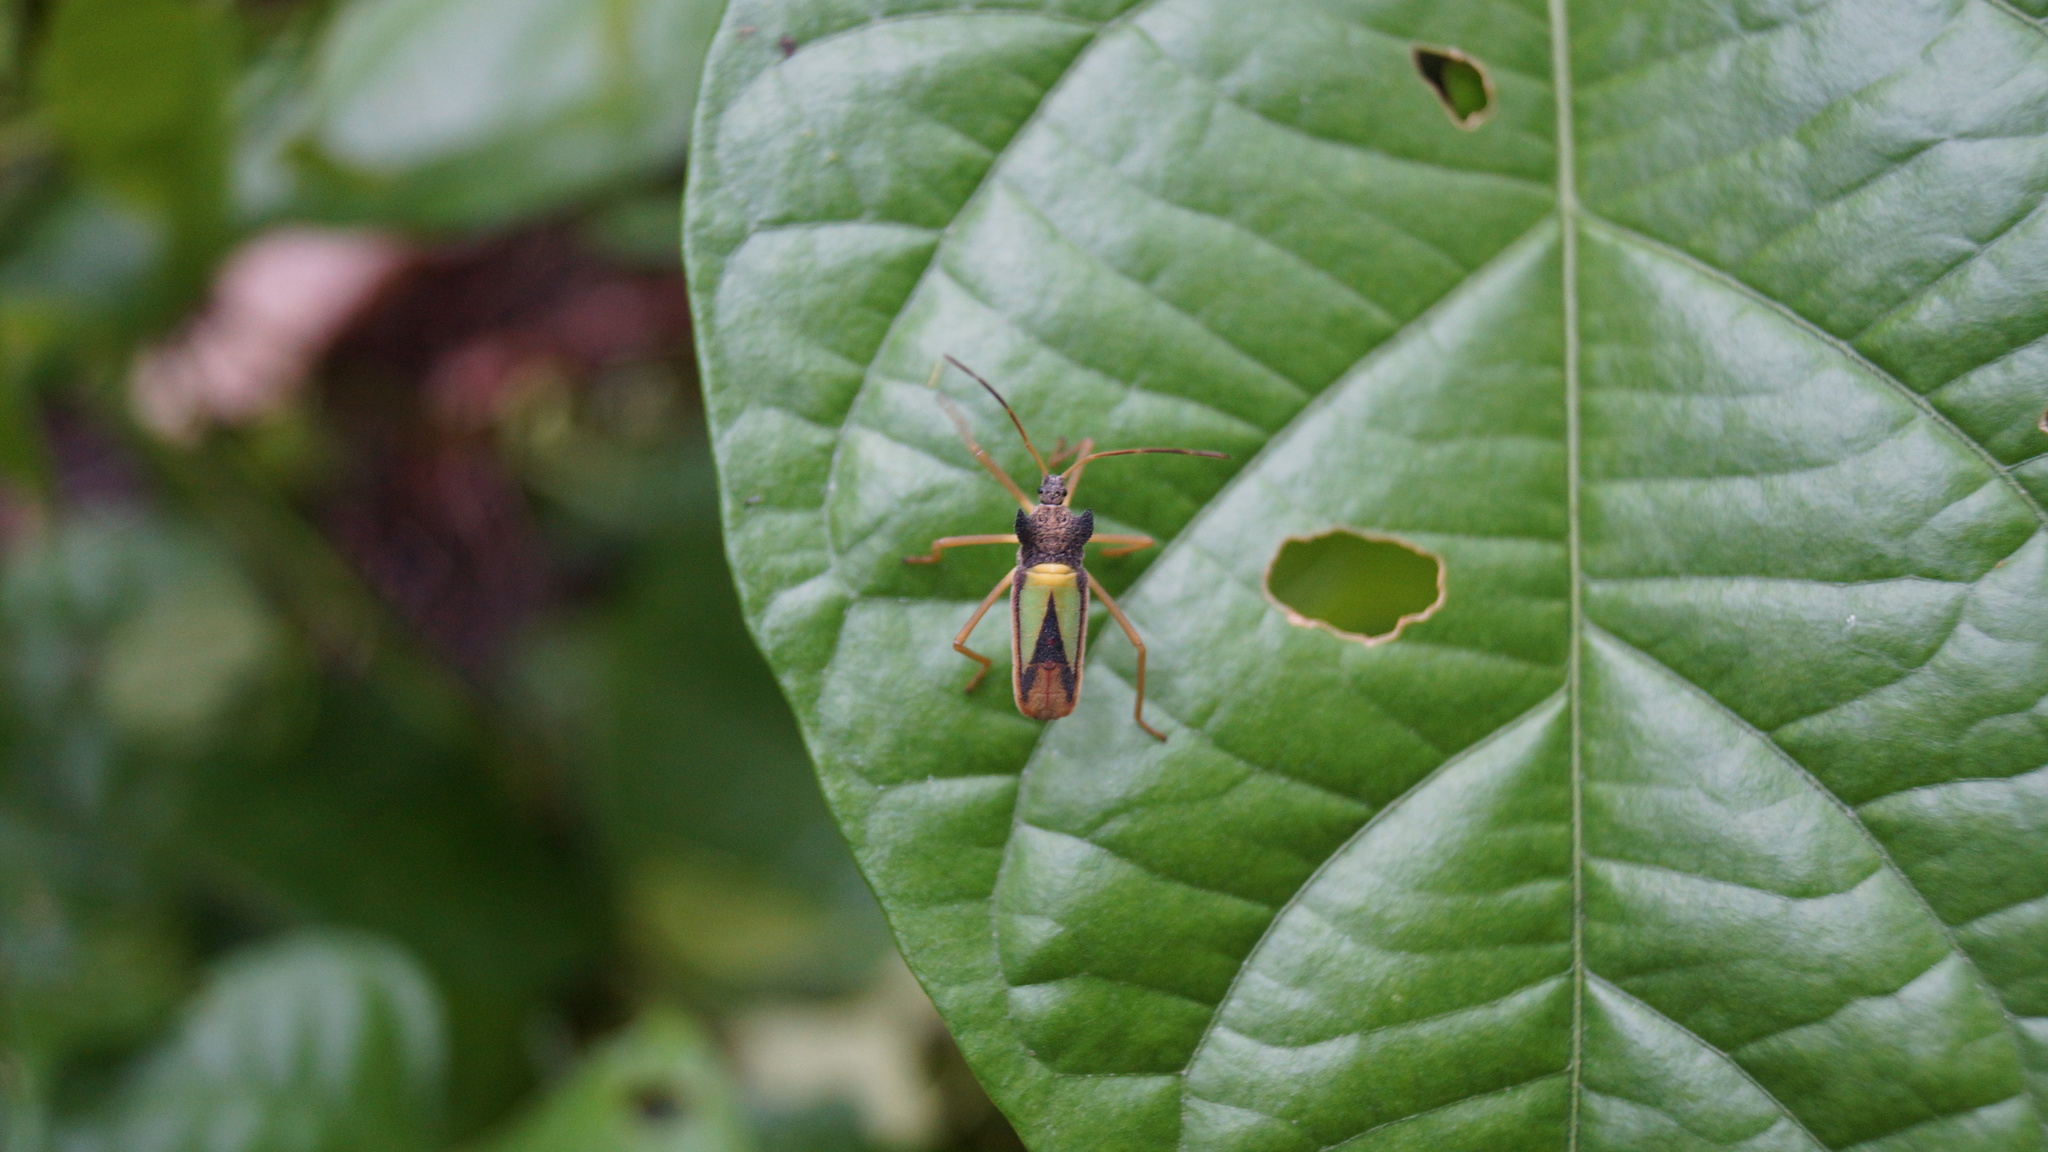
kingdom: Animalia
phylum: Arthropoda
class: Insecta
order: Hemiptera
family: Coreidae
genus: Euagona
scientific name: Euagona diana
